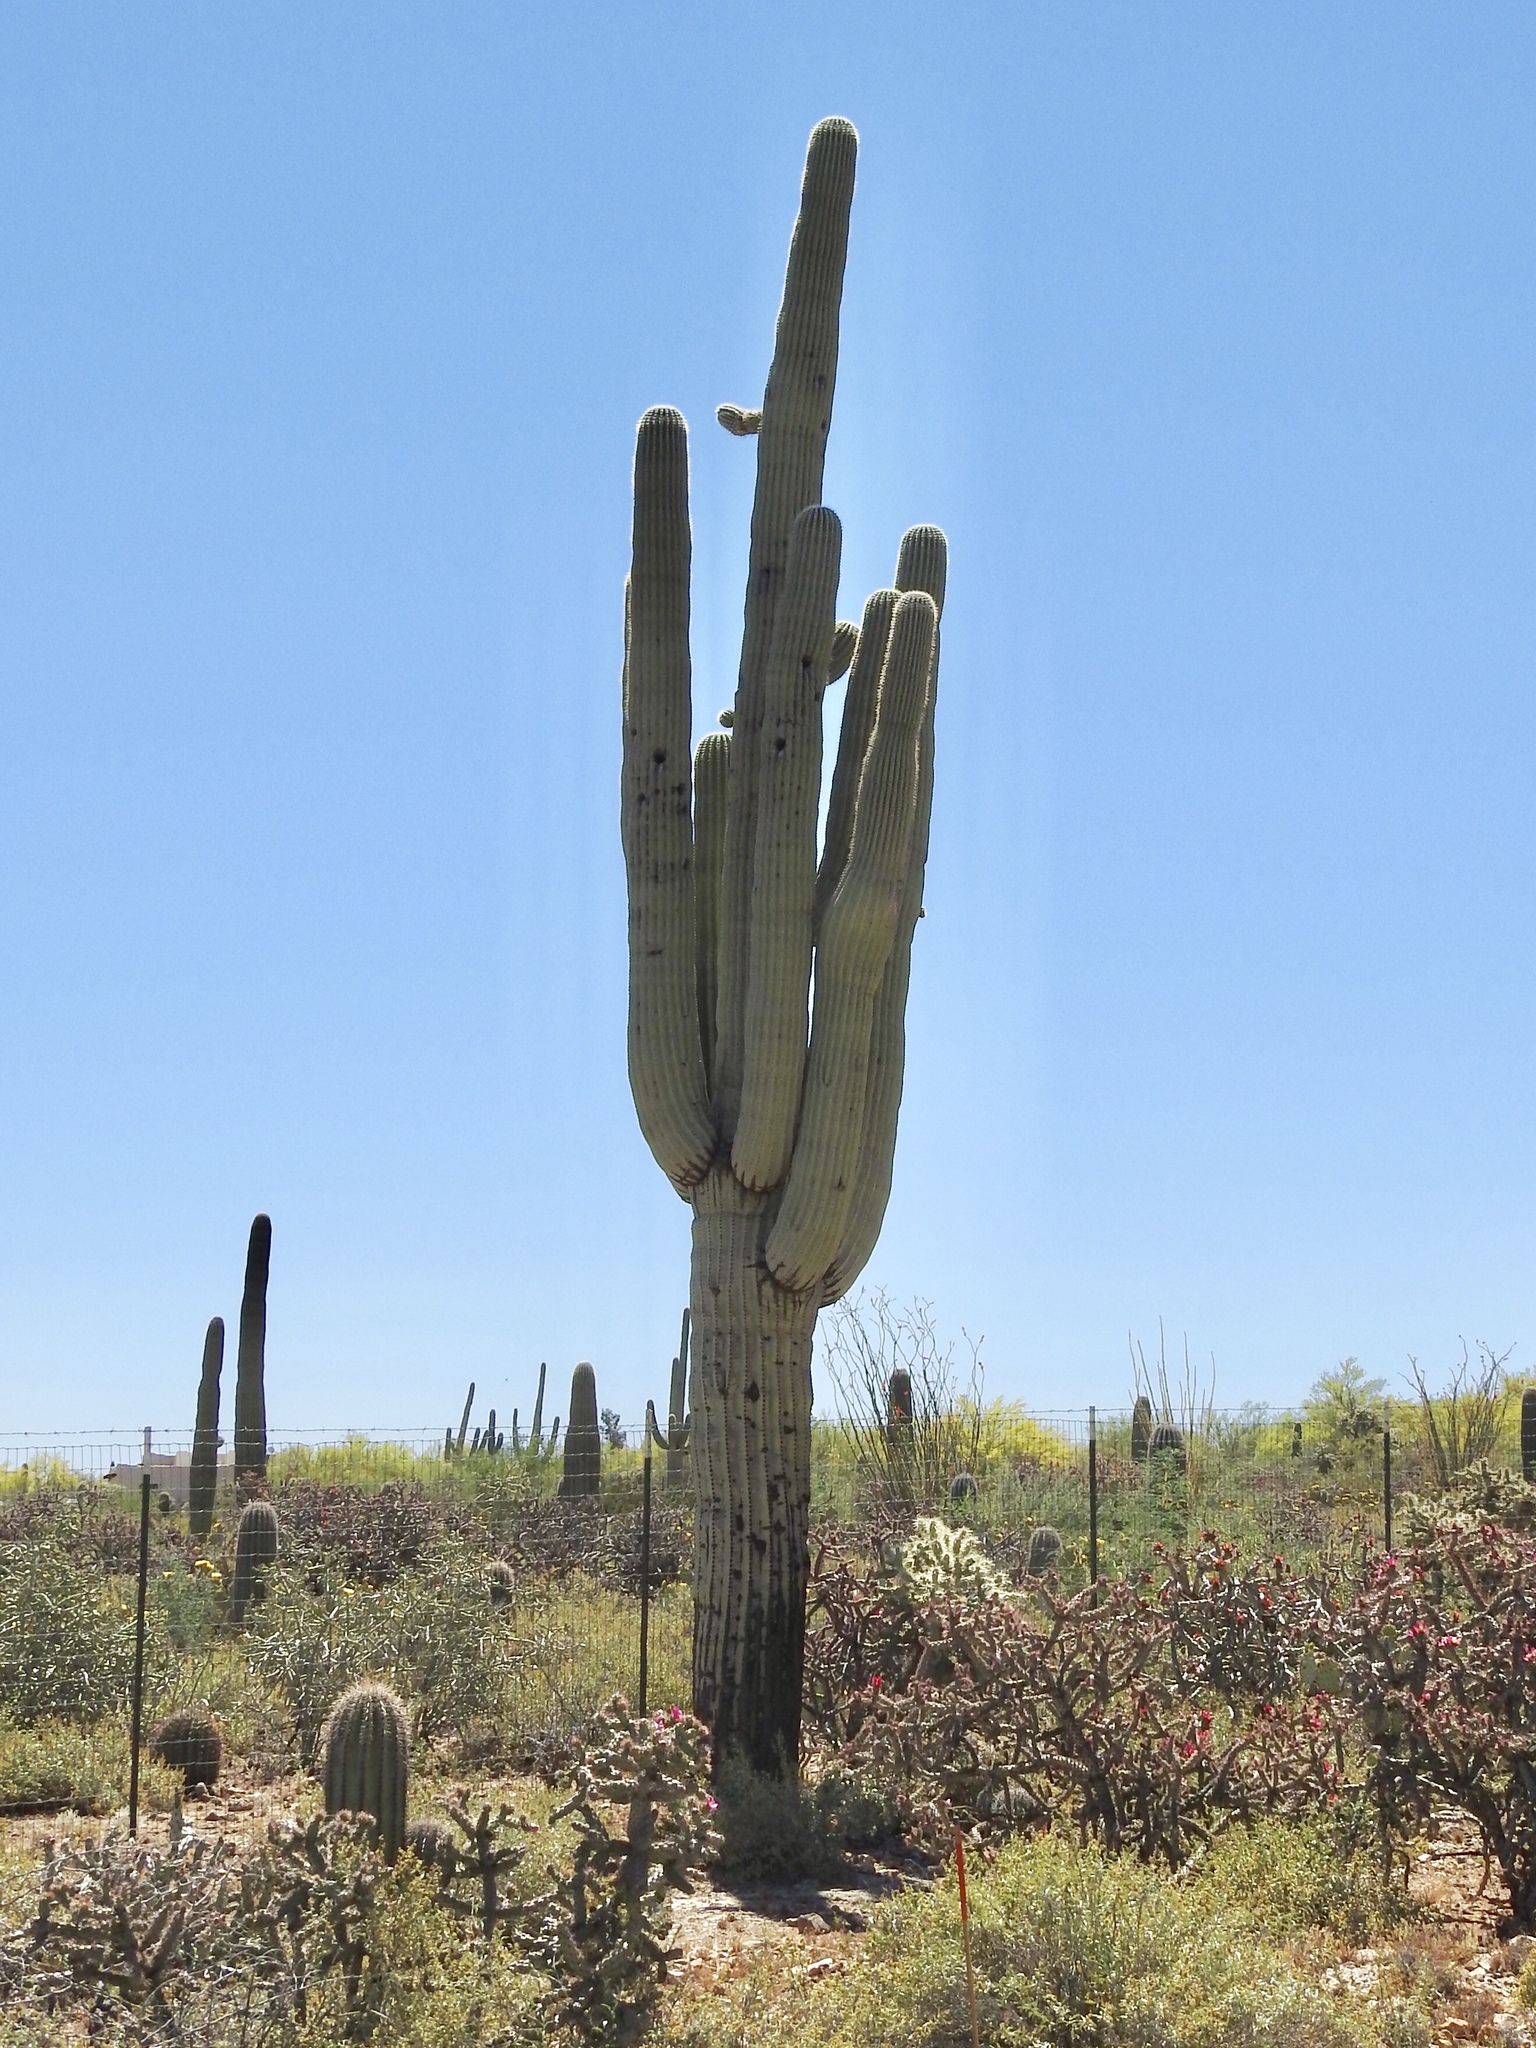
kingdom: Plantae
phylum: Tracheophyta
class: Magnoliopsida
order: Caryophyllales
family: Cactaceae
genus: Carnegiea
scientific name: Carnegiea gigantea
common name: Saguaro
